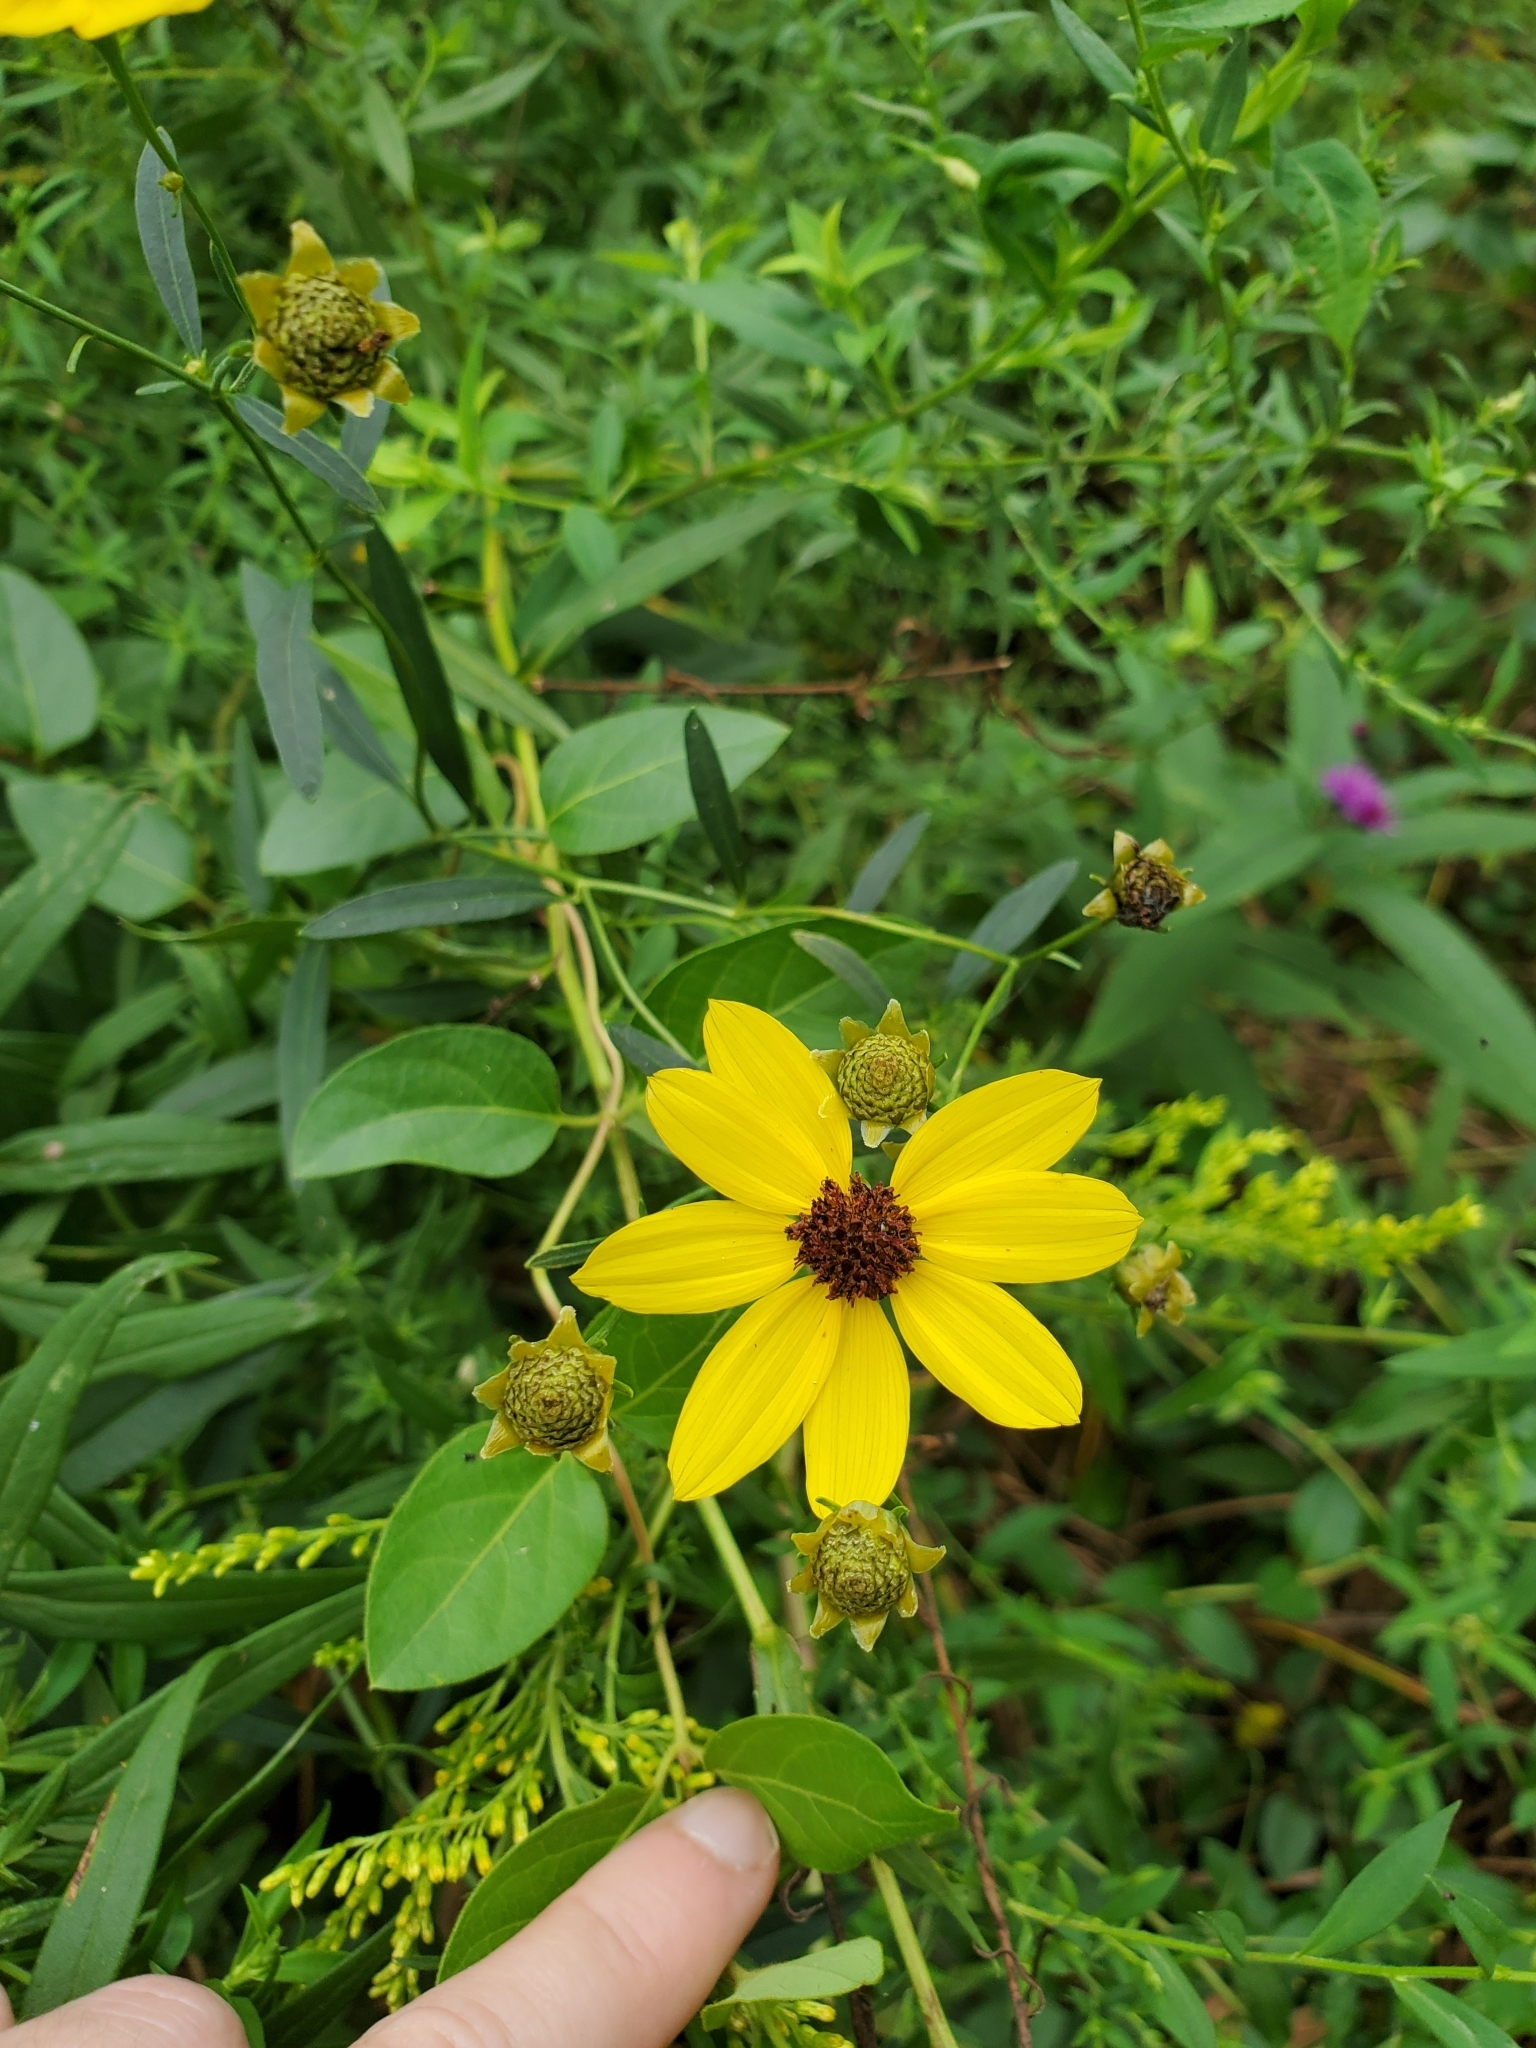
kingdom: Plantae
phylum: Tracheophyta
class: Magnoliopsida
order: Asterales
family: Asteraceae
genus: Coreopsis
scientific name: Coreopsis tripteris
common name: Tall coreopsis
